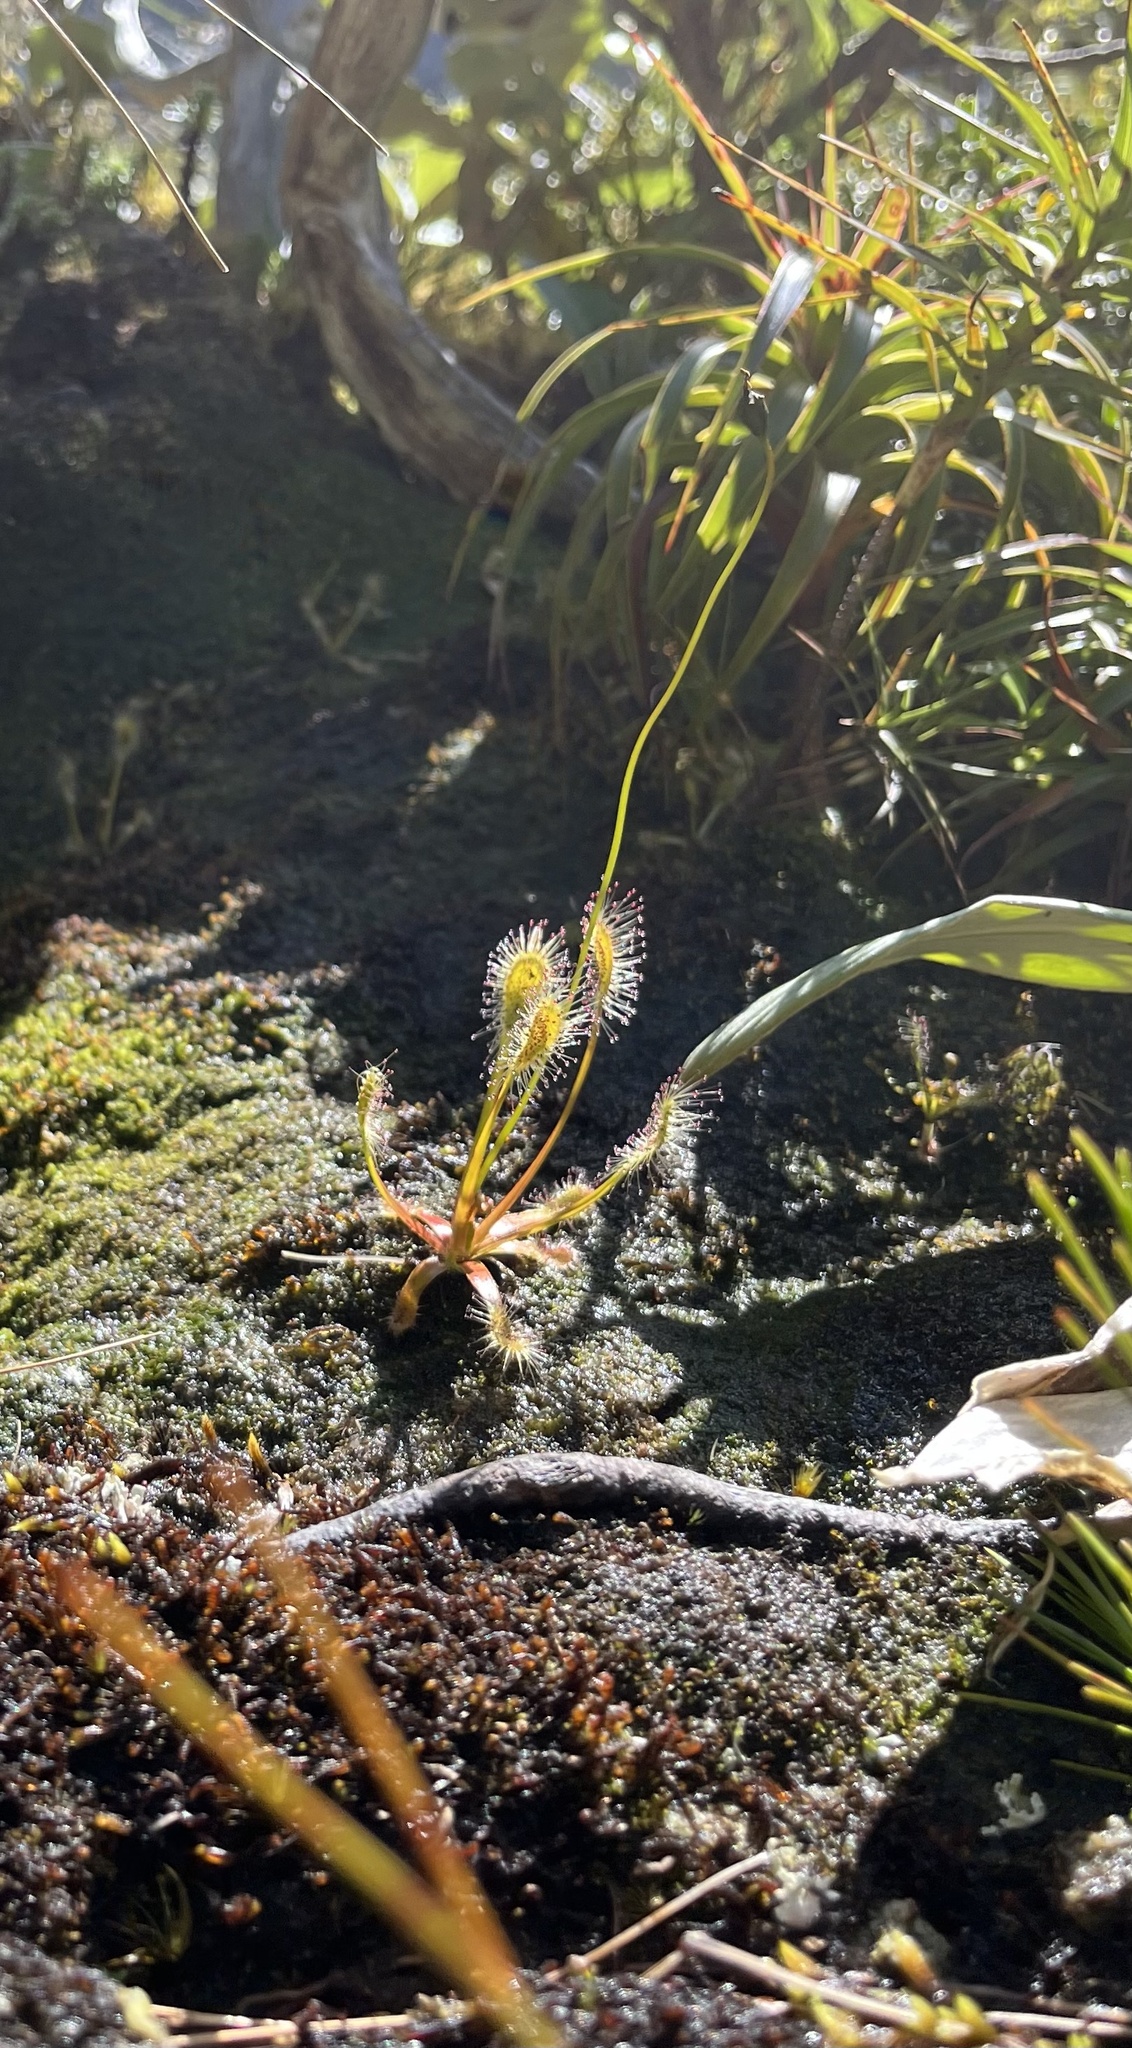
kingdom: Plantae
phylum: Tracheophyta
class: Magnoliopsida
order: Caryophyllales
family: Droseraceae
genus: Drosera
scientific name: Drosera stenopetala
